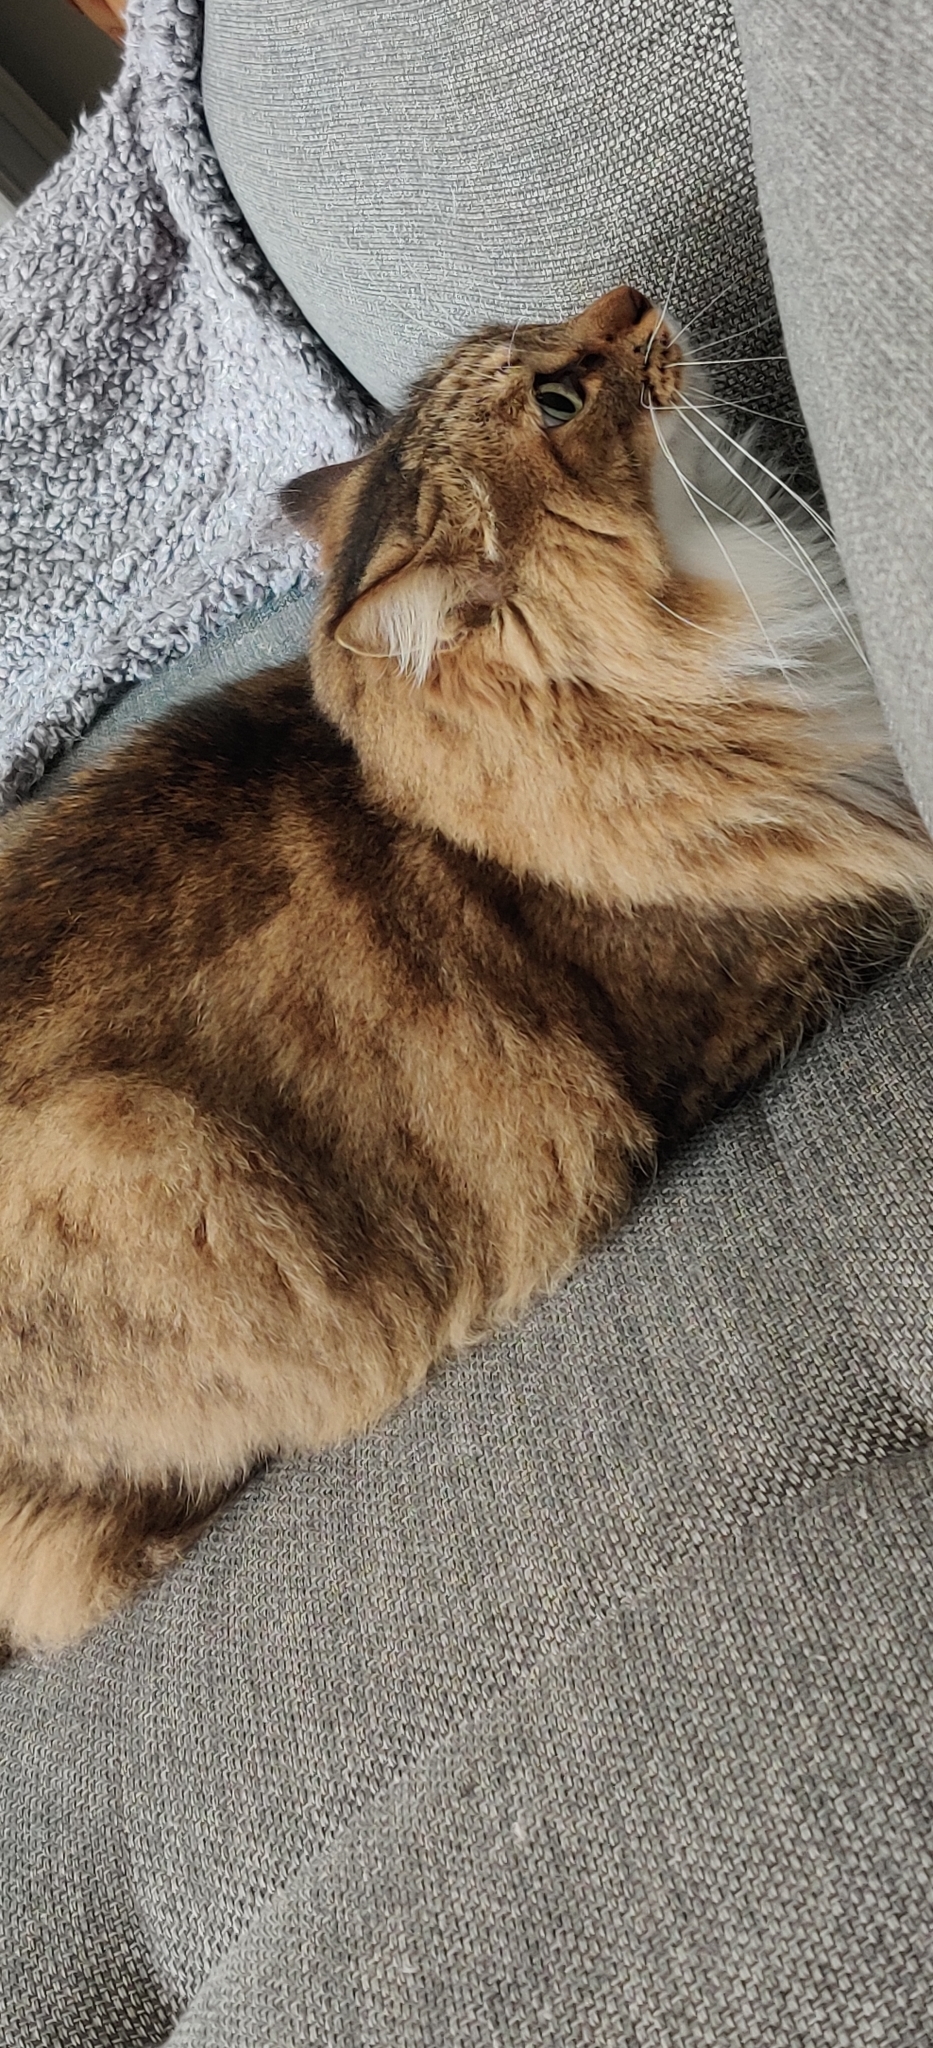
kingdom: Animalia
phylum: Chordata
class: Mammalia
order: Carnivora
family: Felidae
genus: Felis
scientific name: Felis catus
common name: Domestic cat
